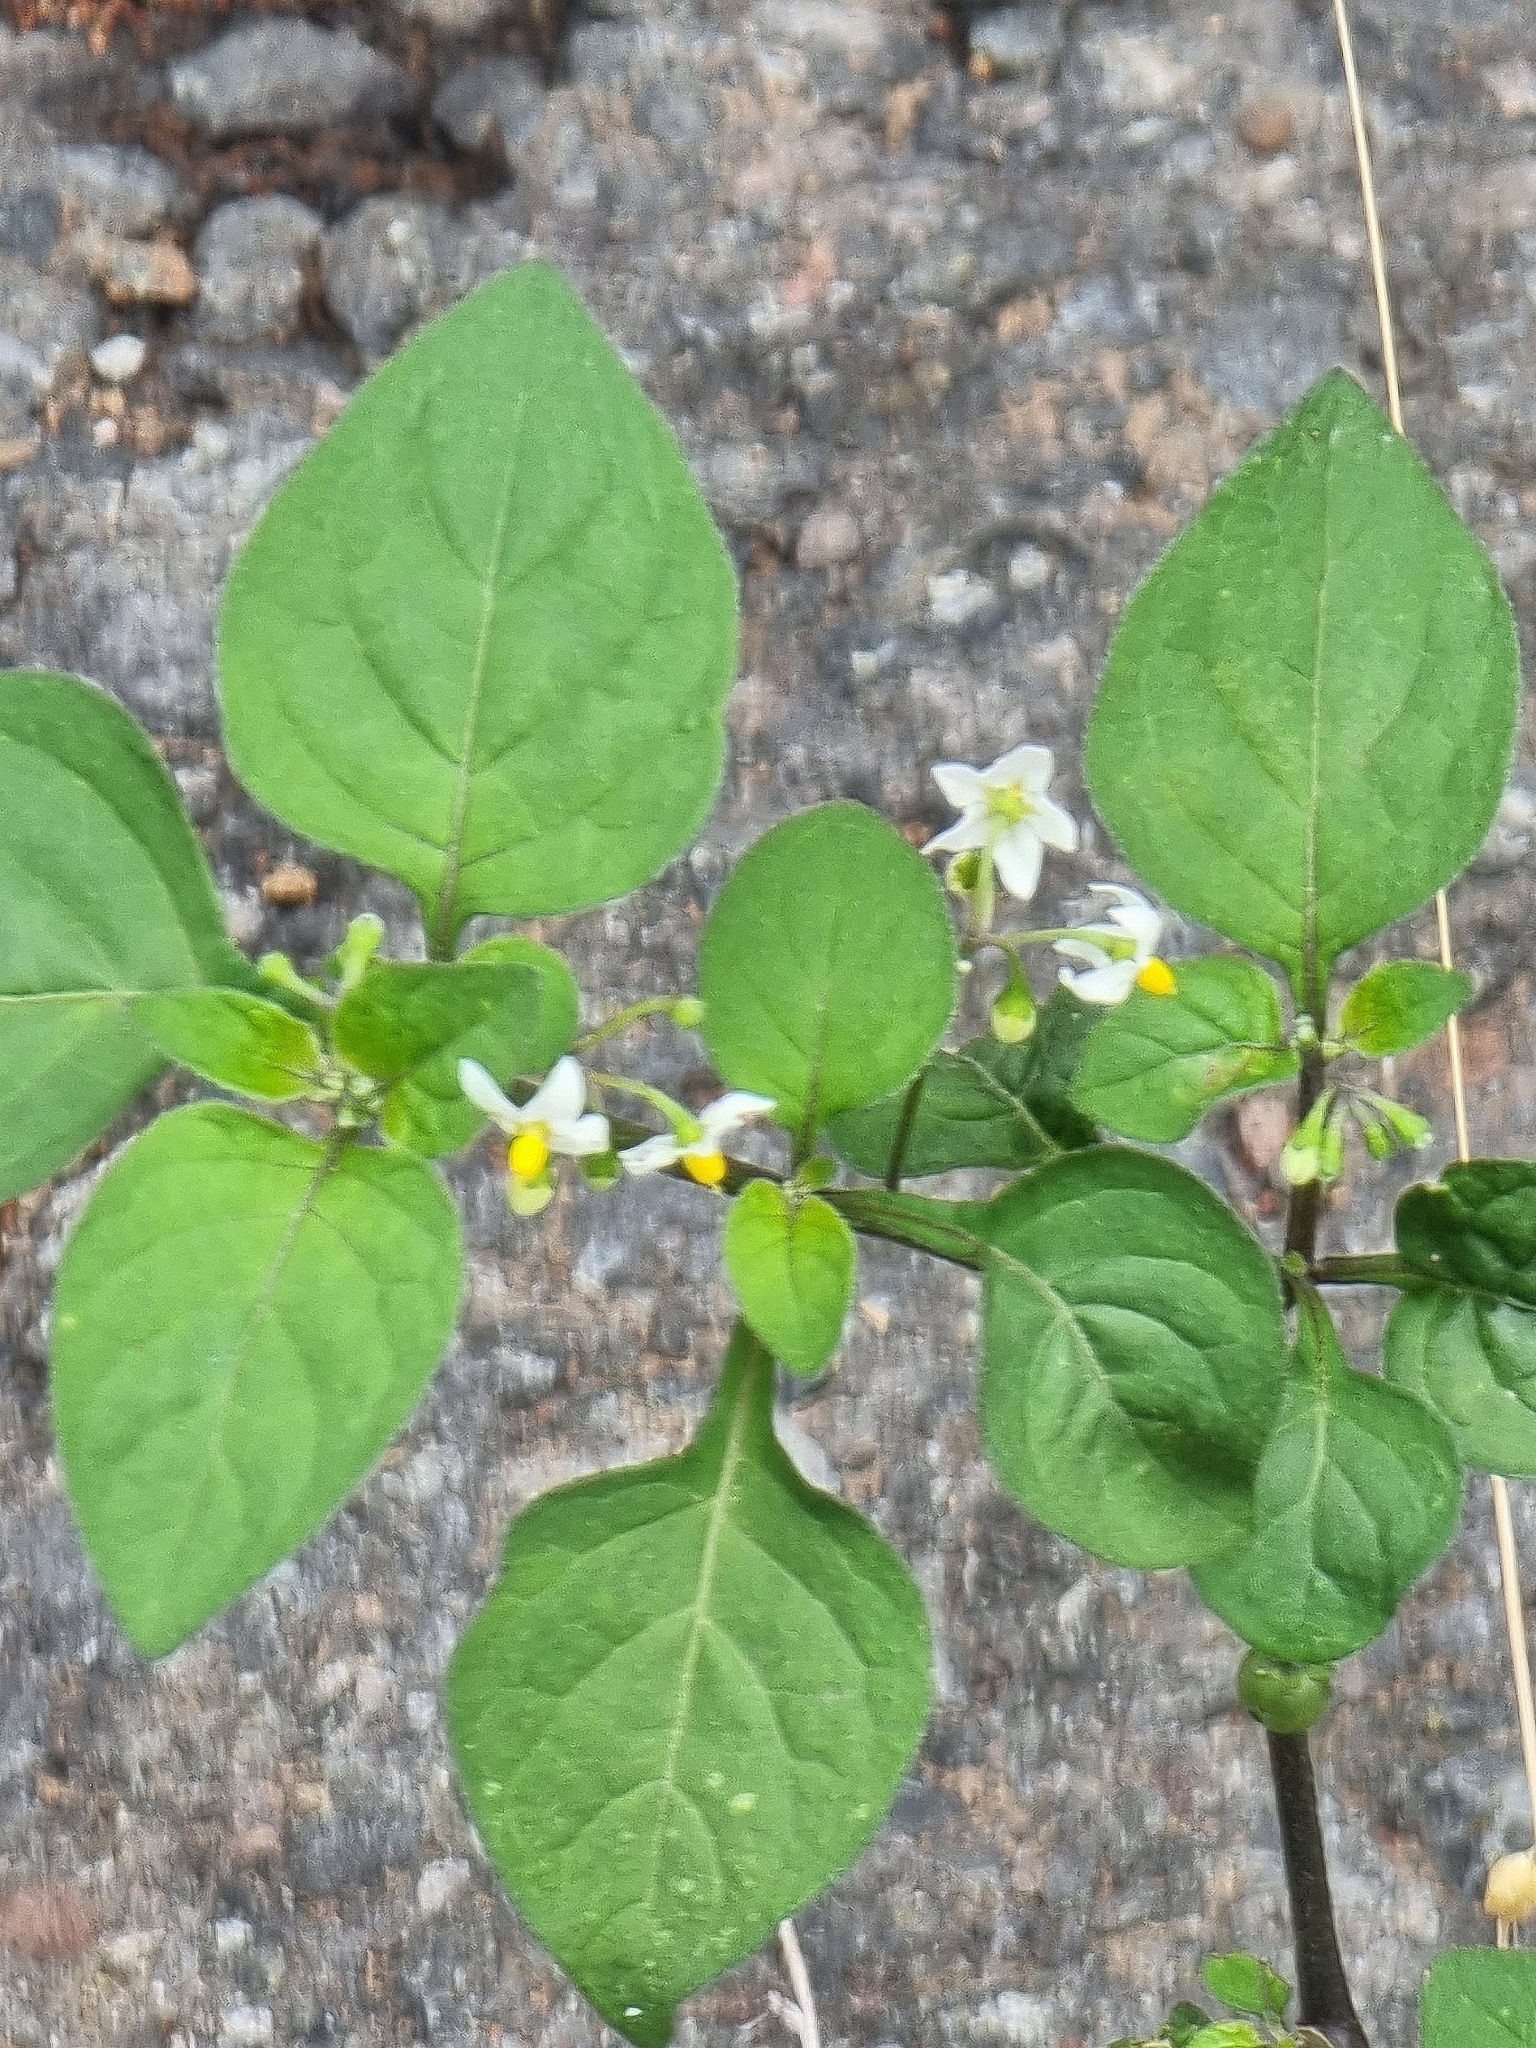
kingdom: Plantae
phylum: Tracheophyta
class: Magnoliopsida
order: Solanales
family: Solanaceae
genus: Solanum
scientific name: Solanum nigrum
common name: Black nightshade
